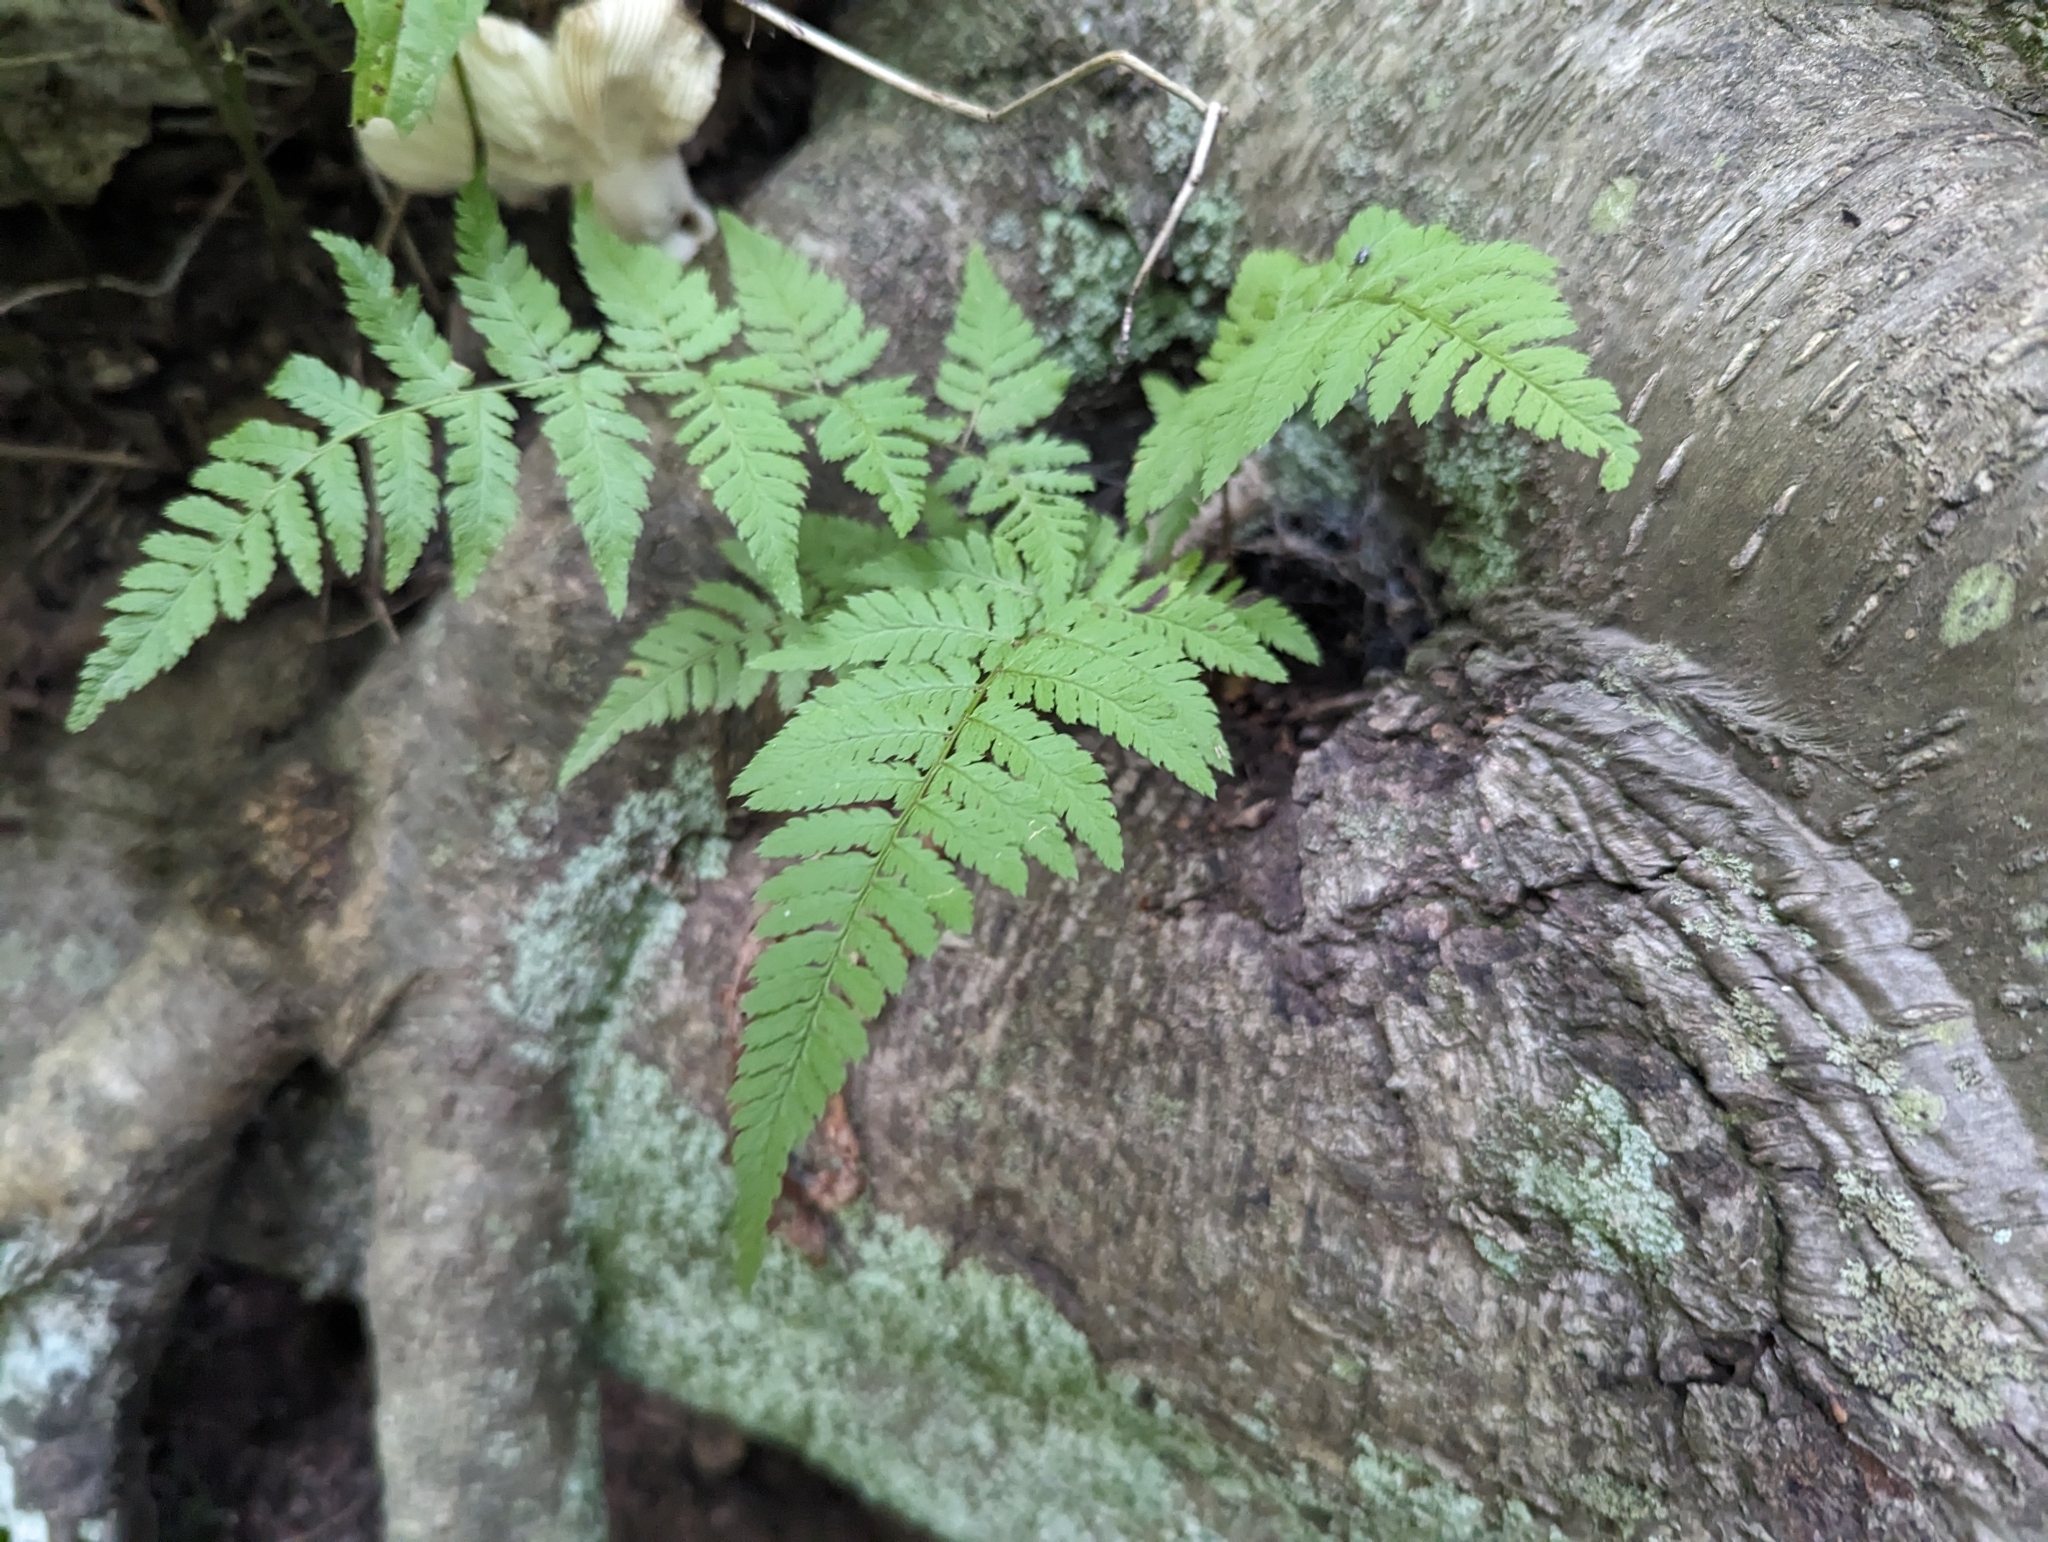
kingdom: Plantae
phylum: Tracheophyta
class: Polypodiopsida
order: Polypodiales
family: Dryopteridaceae
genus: Dryopteris
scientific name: Dryopteris carthusiana
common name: Narrow buckler-fern
